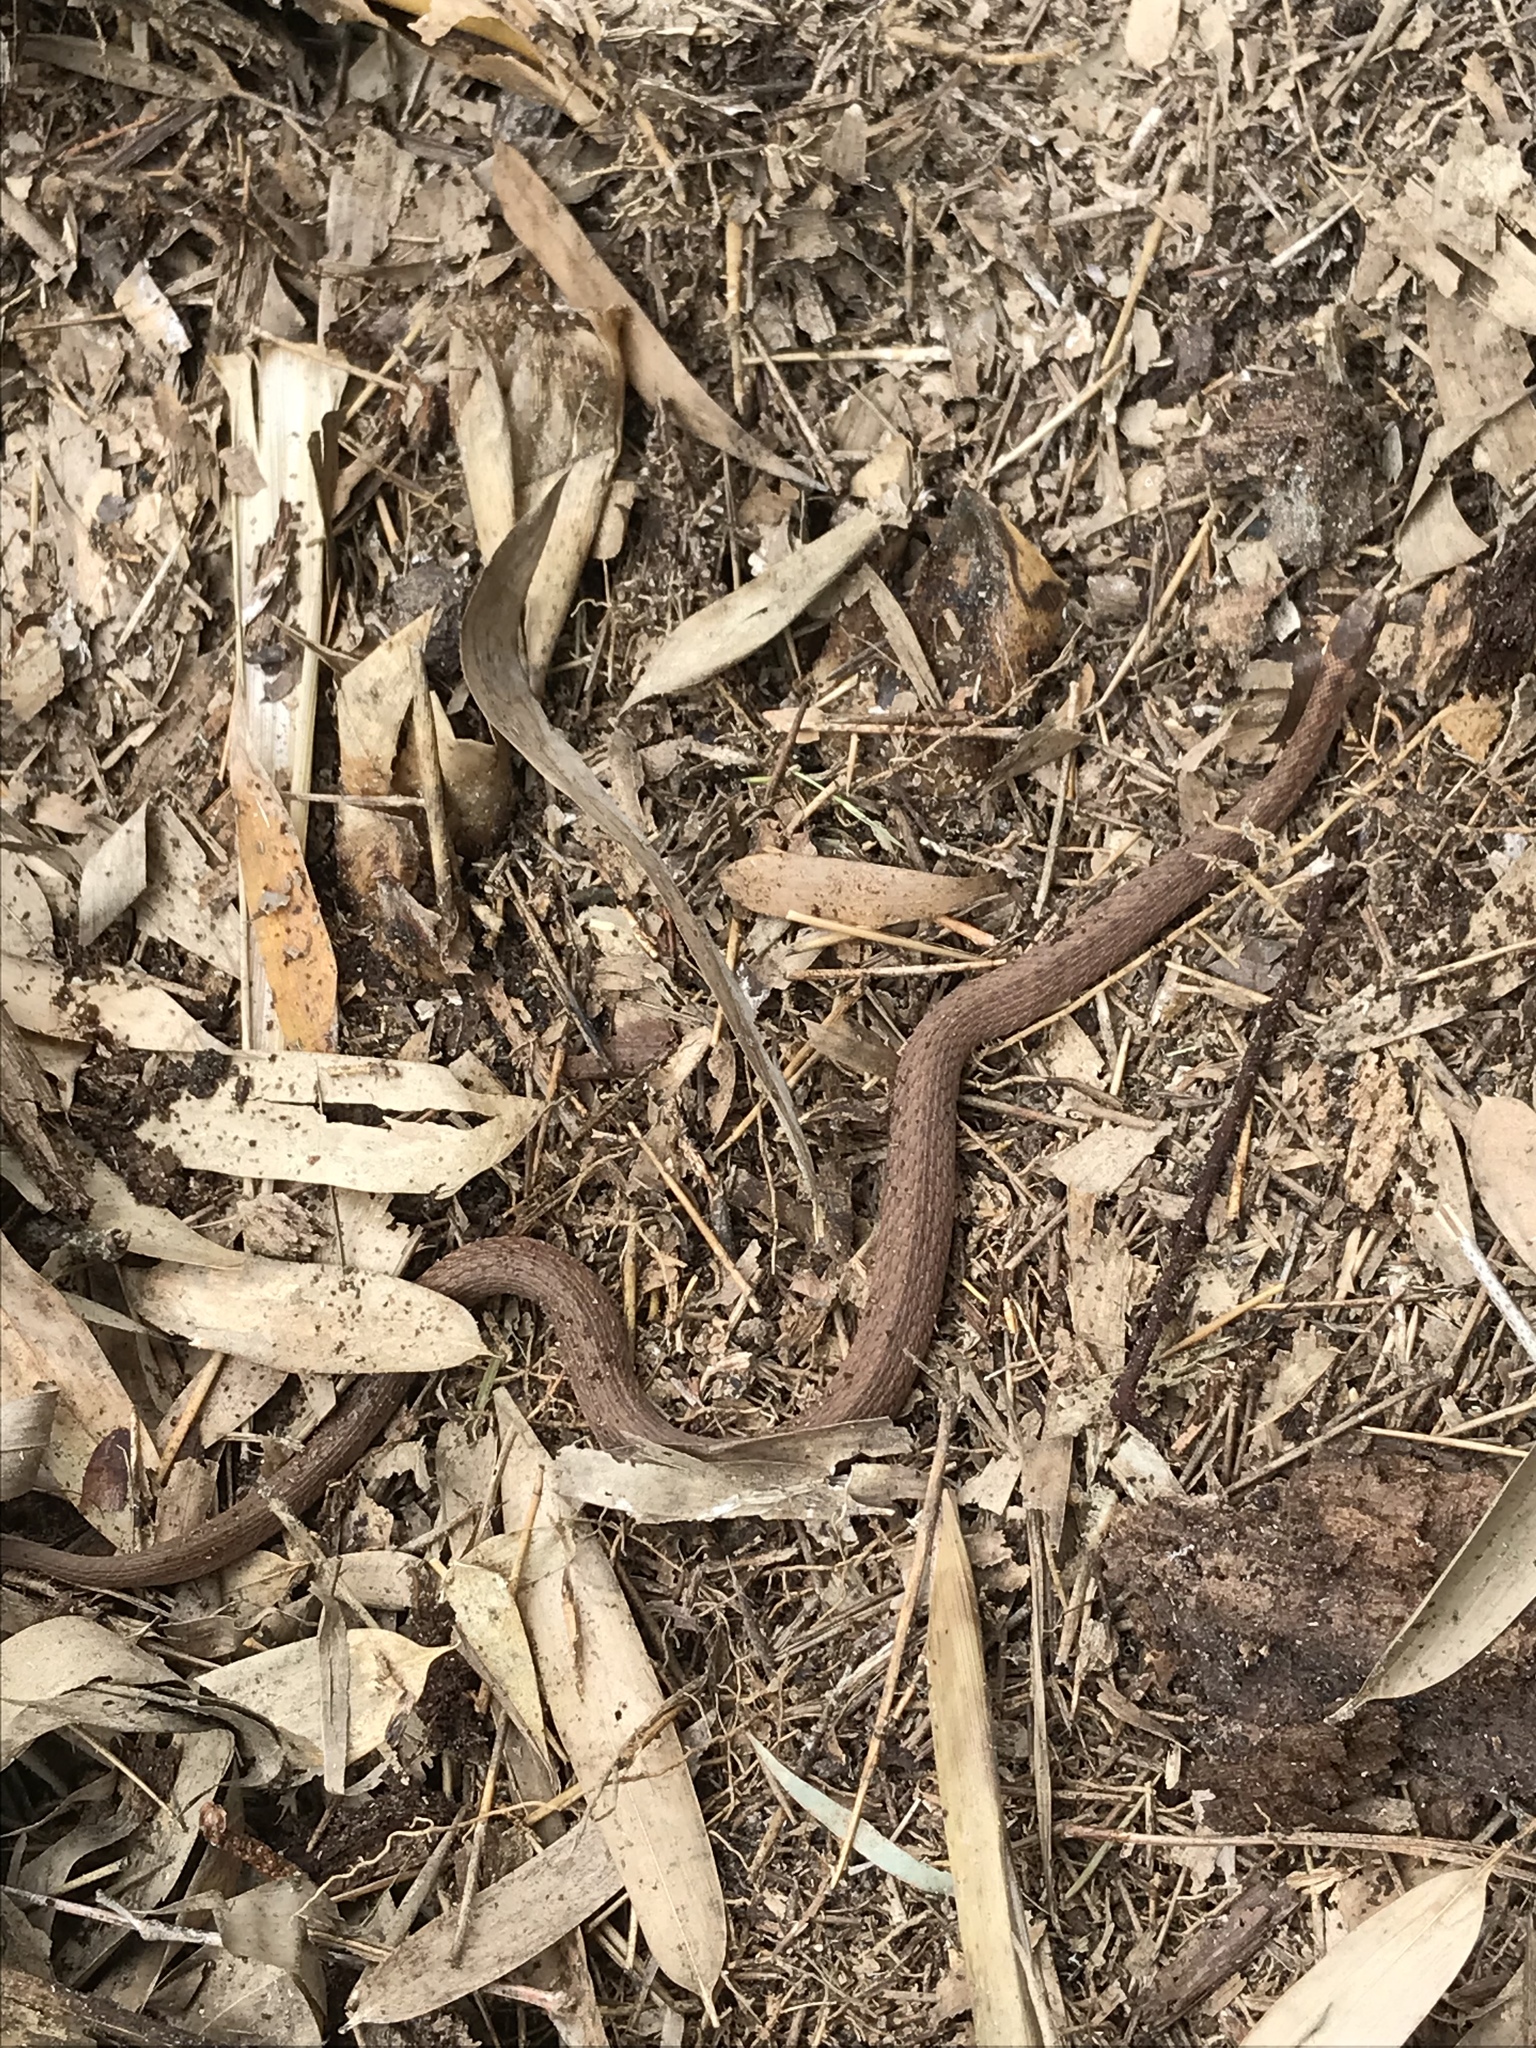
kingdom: Animalia
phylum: Chordata
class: Squamata
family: Colubridae
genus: Storeria
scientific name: Storeria occipitomaculata
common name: Redbelly snake
